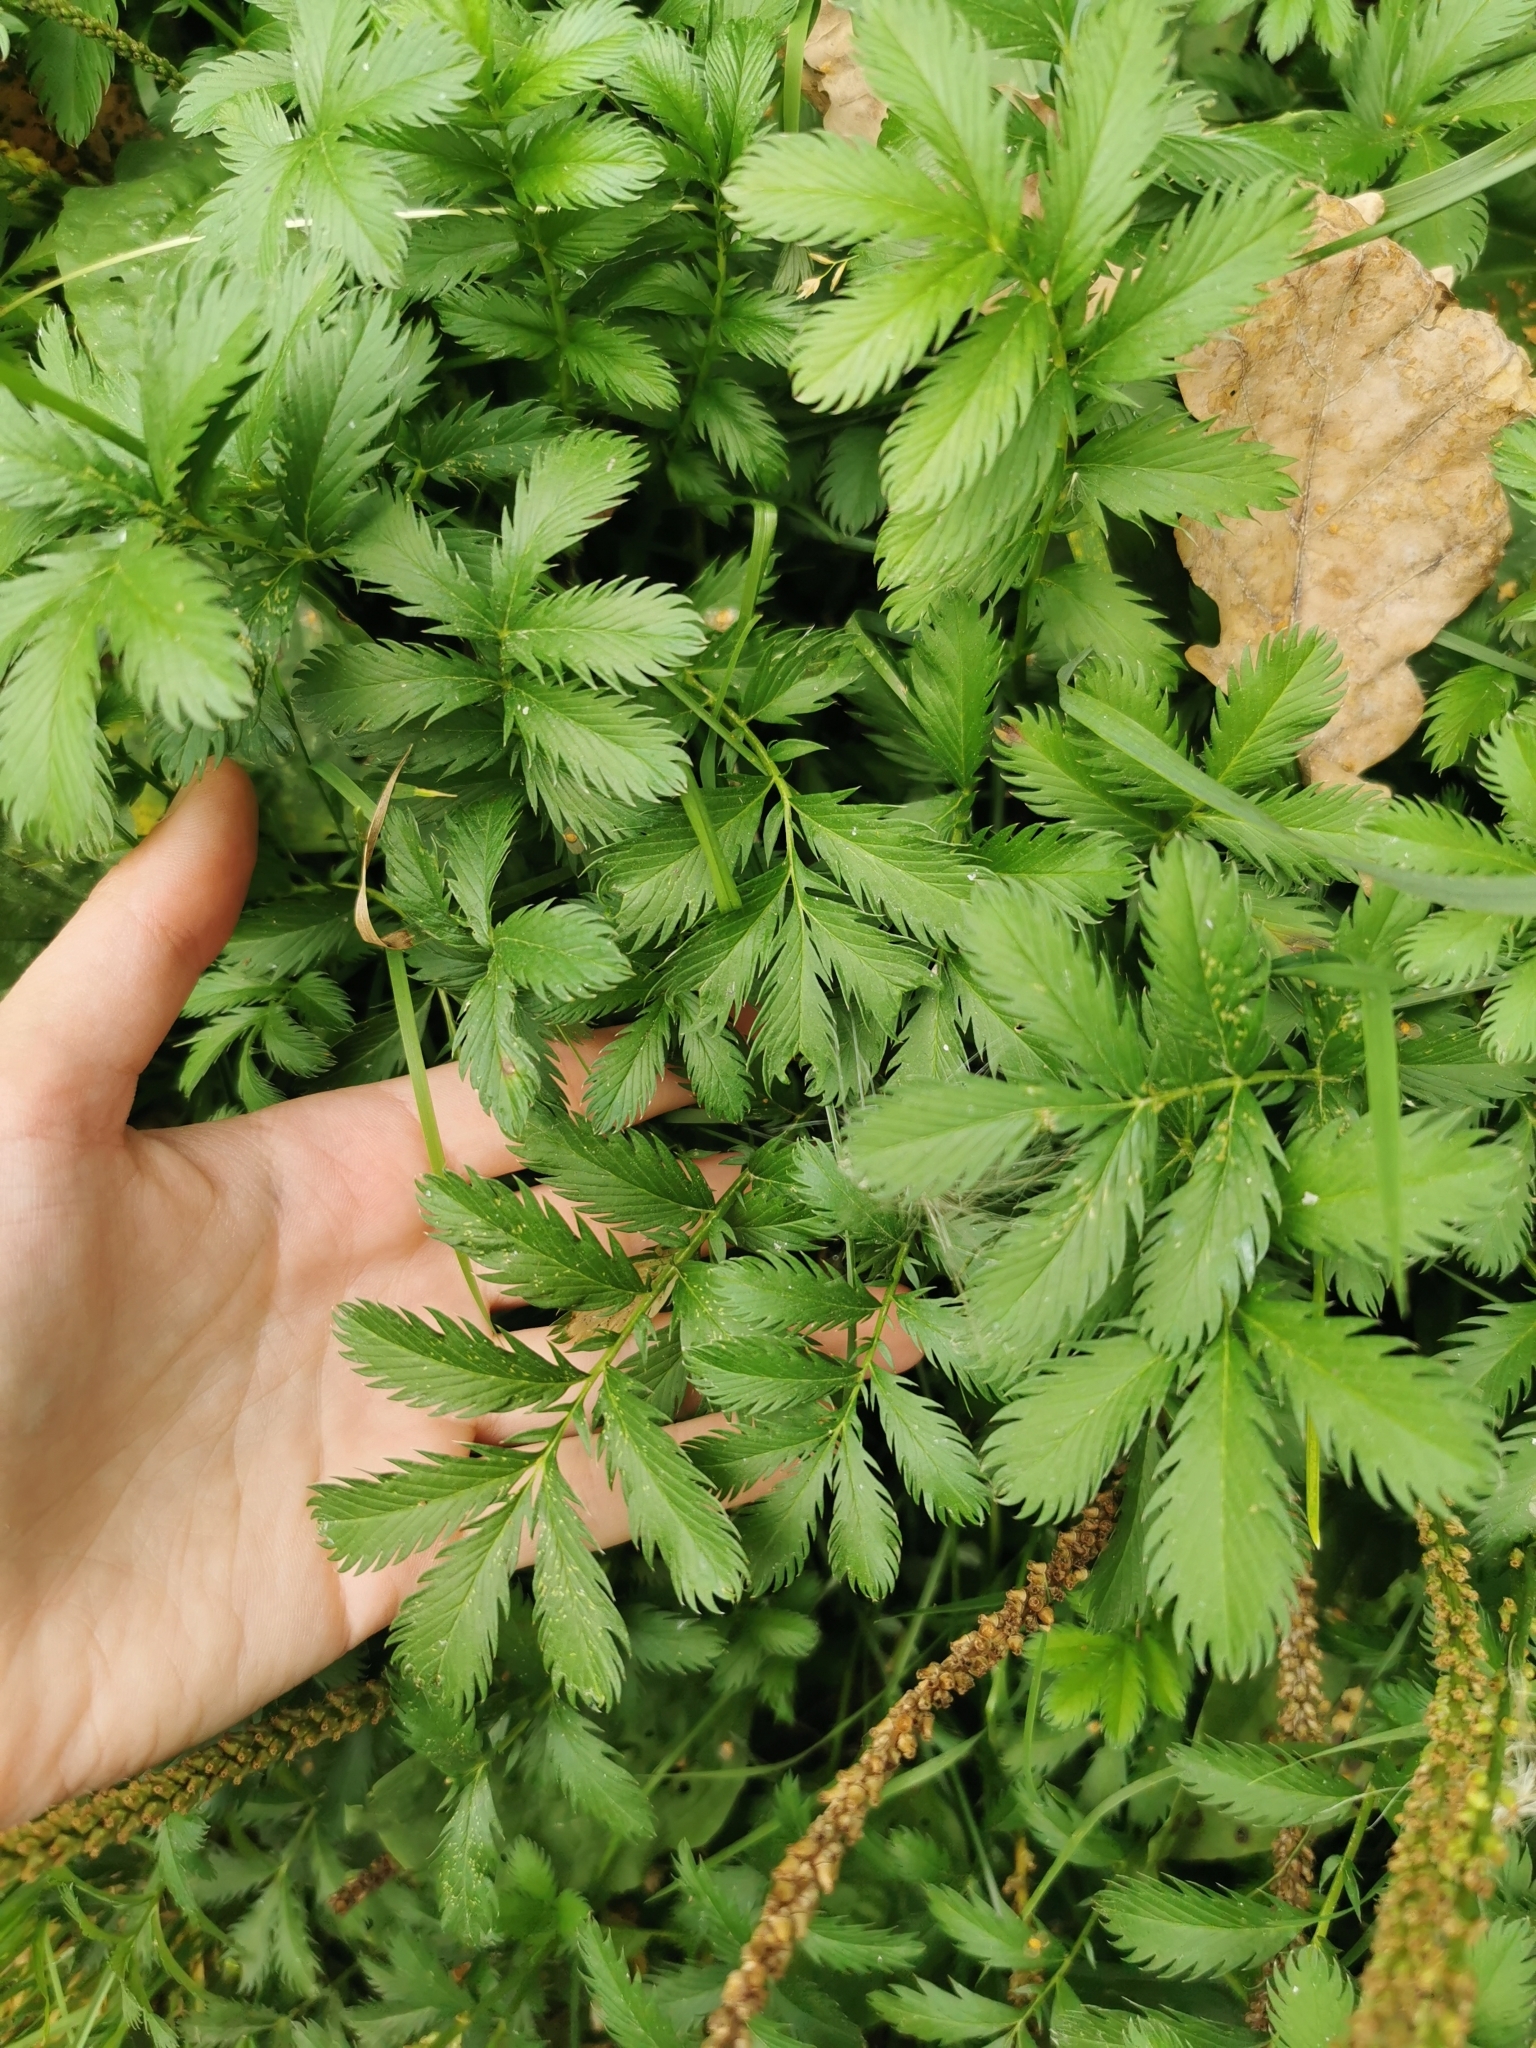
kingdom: Plantae
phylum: Tracheophyta
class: Magnoliopsida
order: Rosales
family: Rosaceae
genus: Argentina
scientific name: Argentina anserina
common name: Common silverweed
